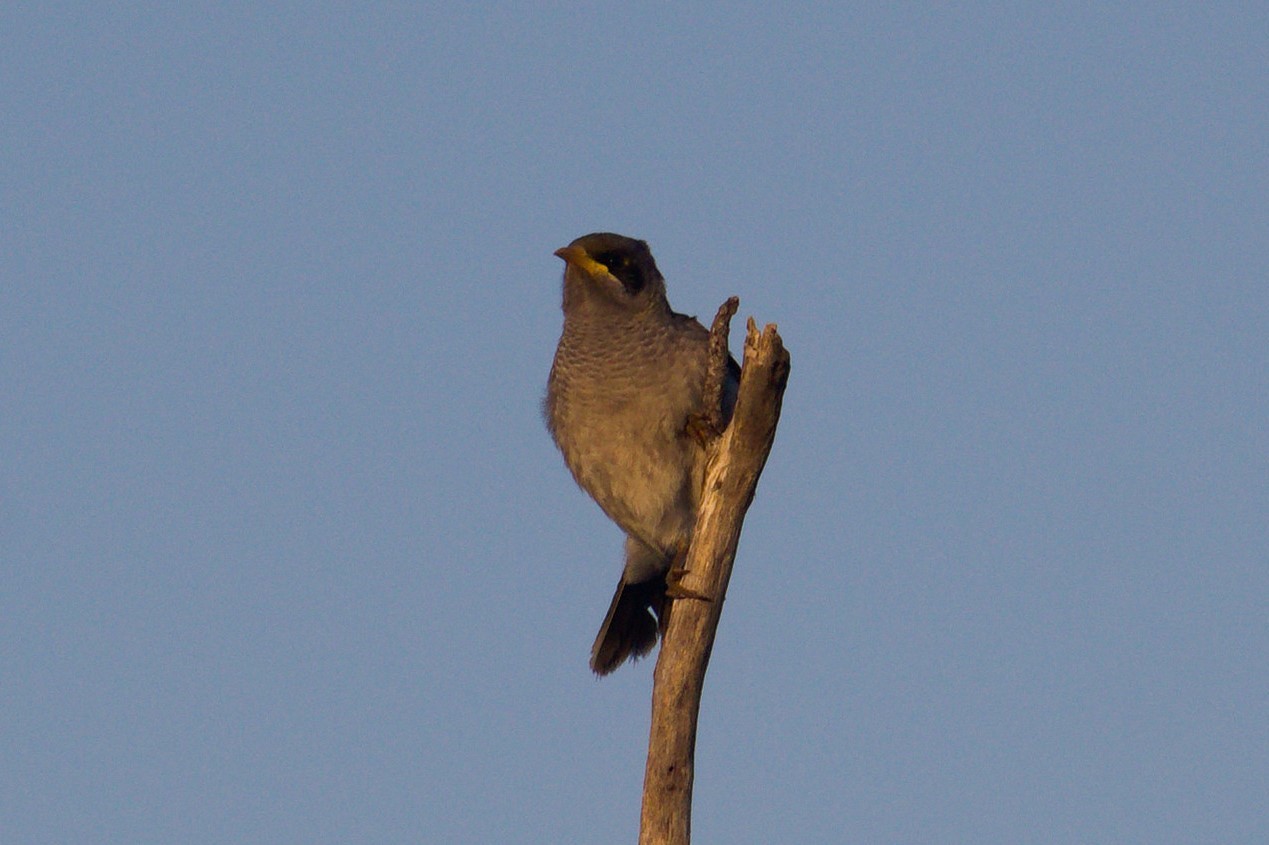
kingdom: Animalia
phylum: Chordata
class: Aves
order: Passeriformes
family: Meliphagidae
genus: Manorina
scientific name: Manorina flavigula
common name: Yellow-throated miner
